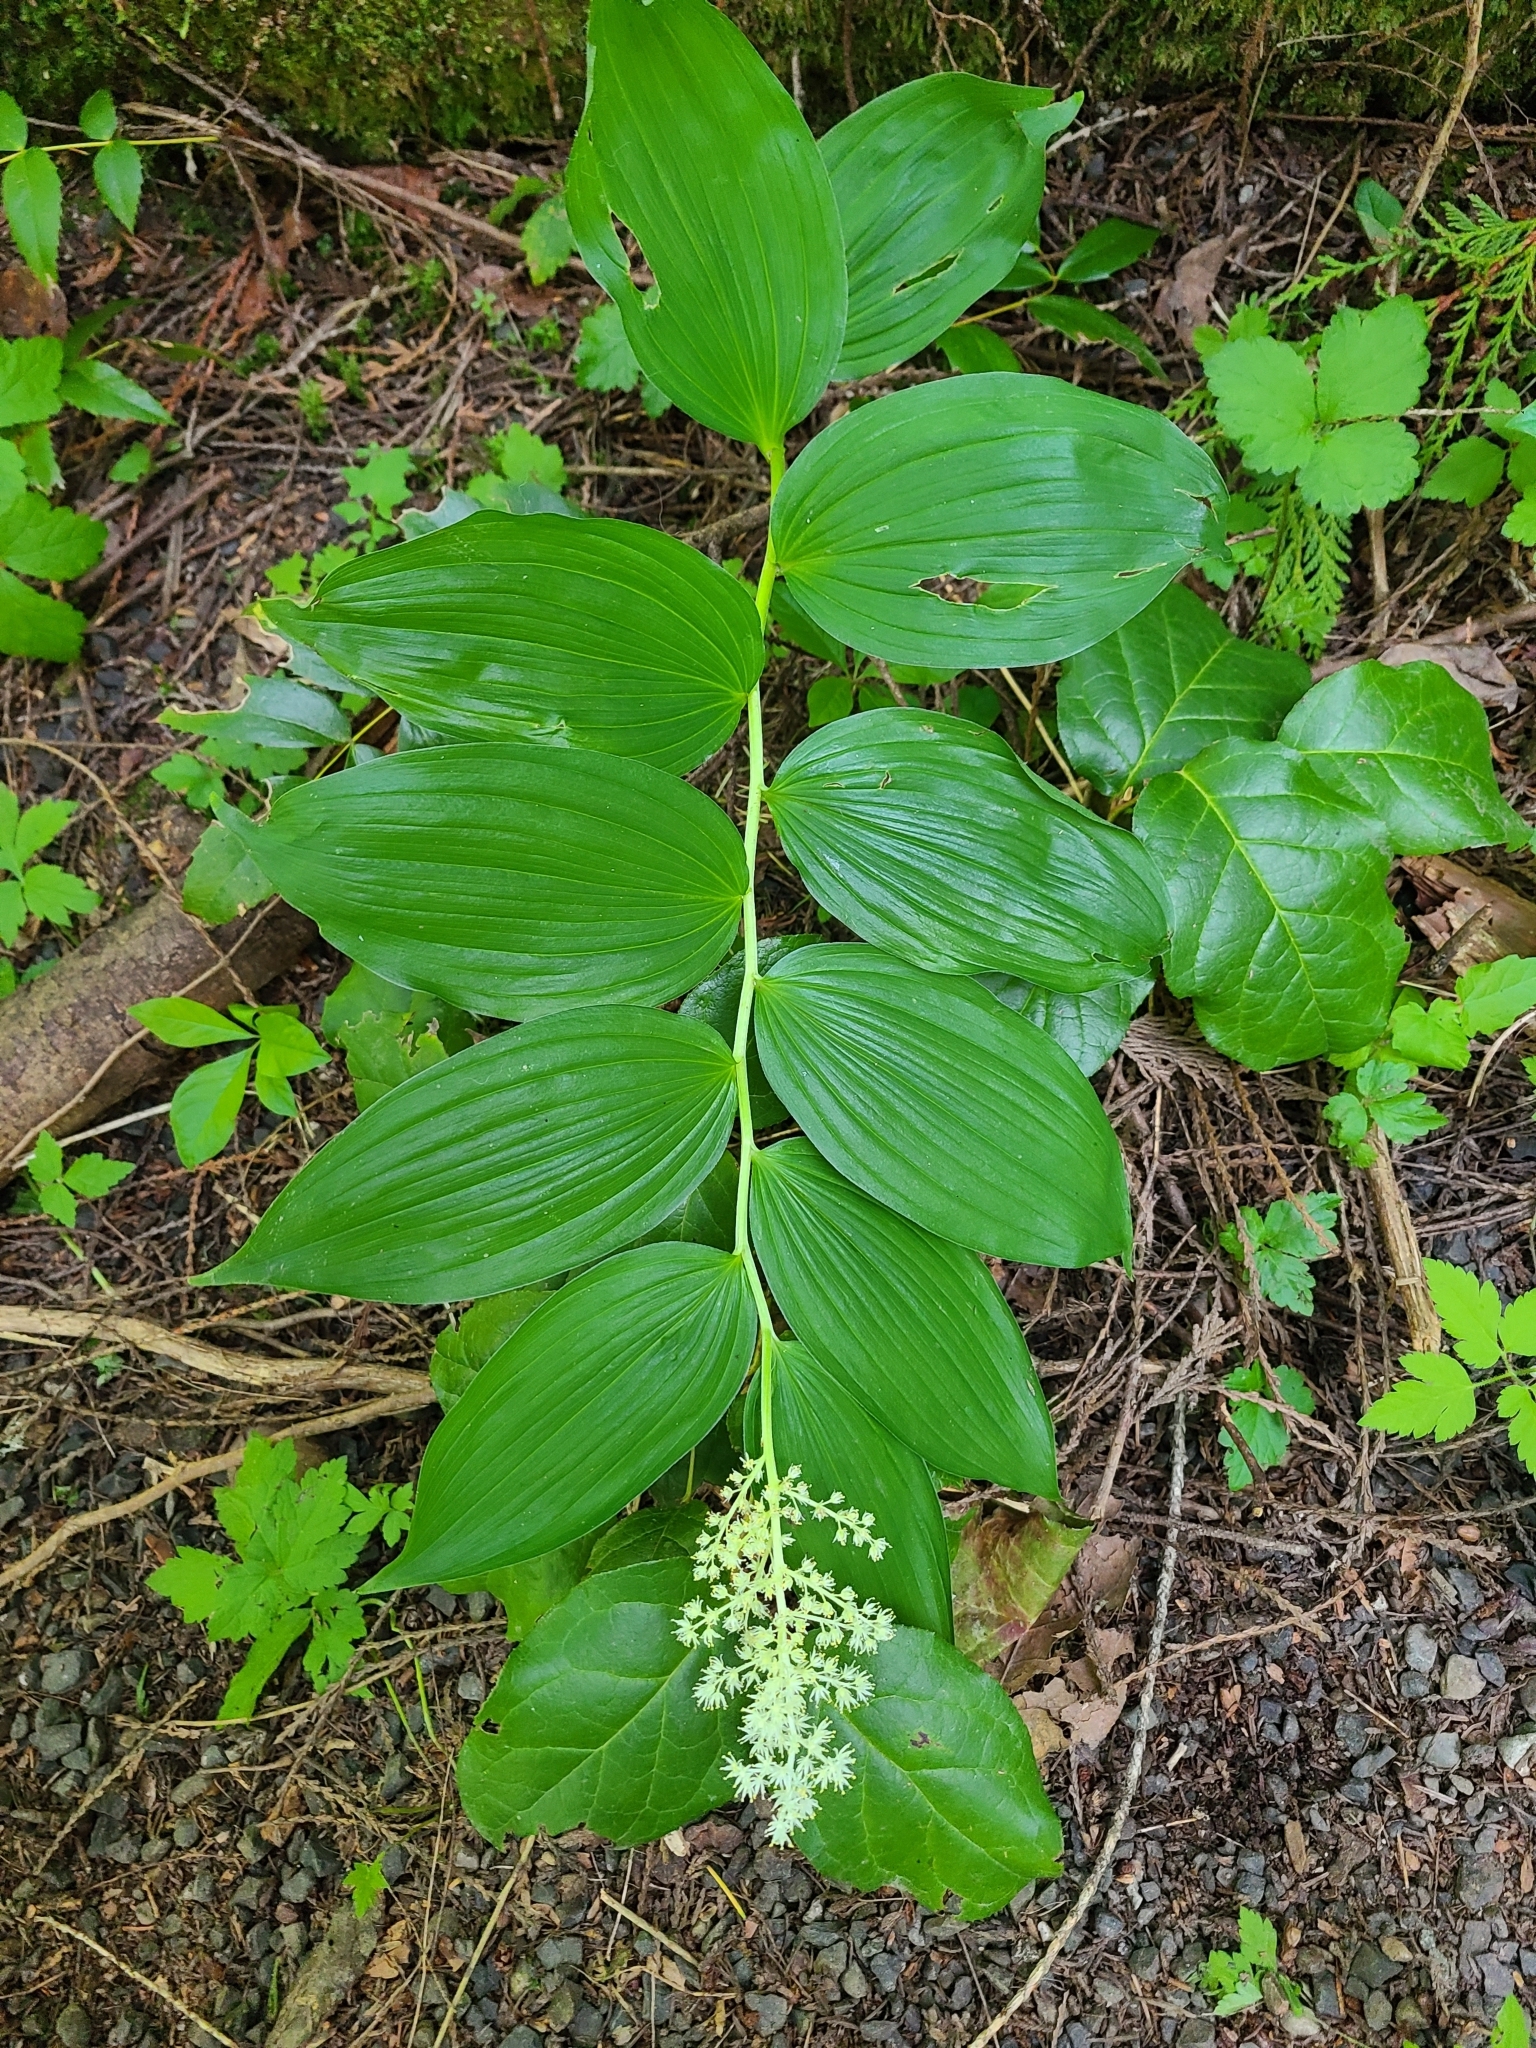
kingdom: Plantae
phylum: Tracheophyta
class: Liliopsida
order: Asparagales
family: Asparagaceae
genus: Maianthemum
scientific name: Maianthemum racemosum
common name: False spikenard
